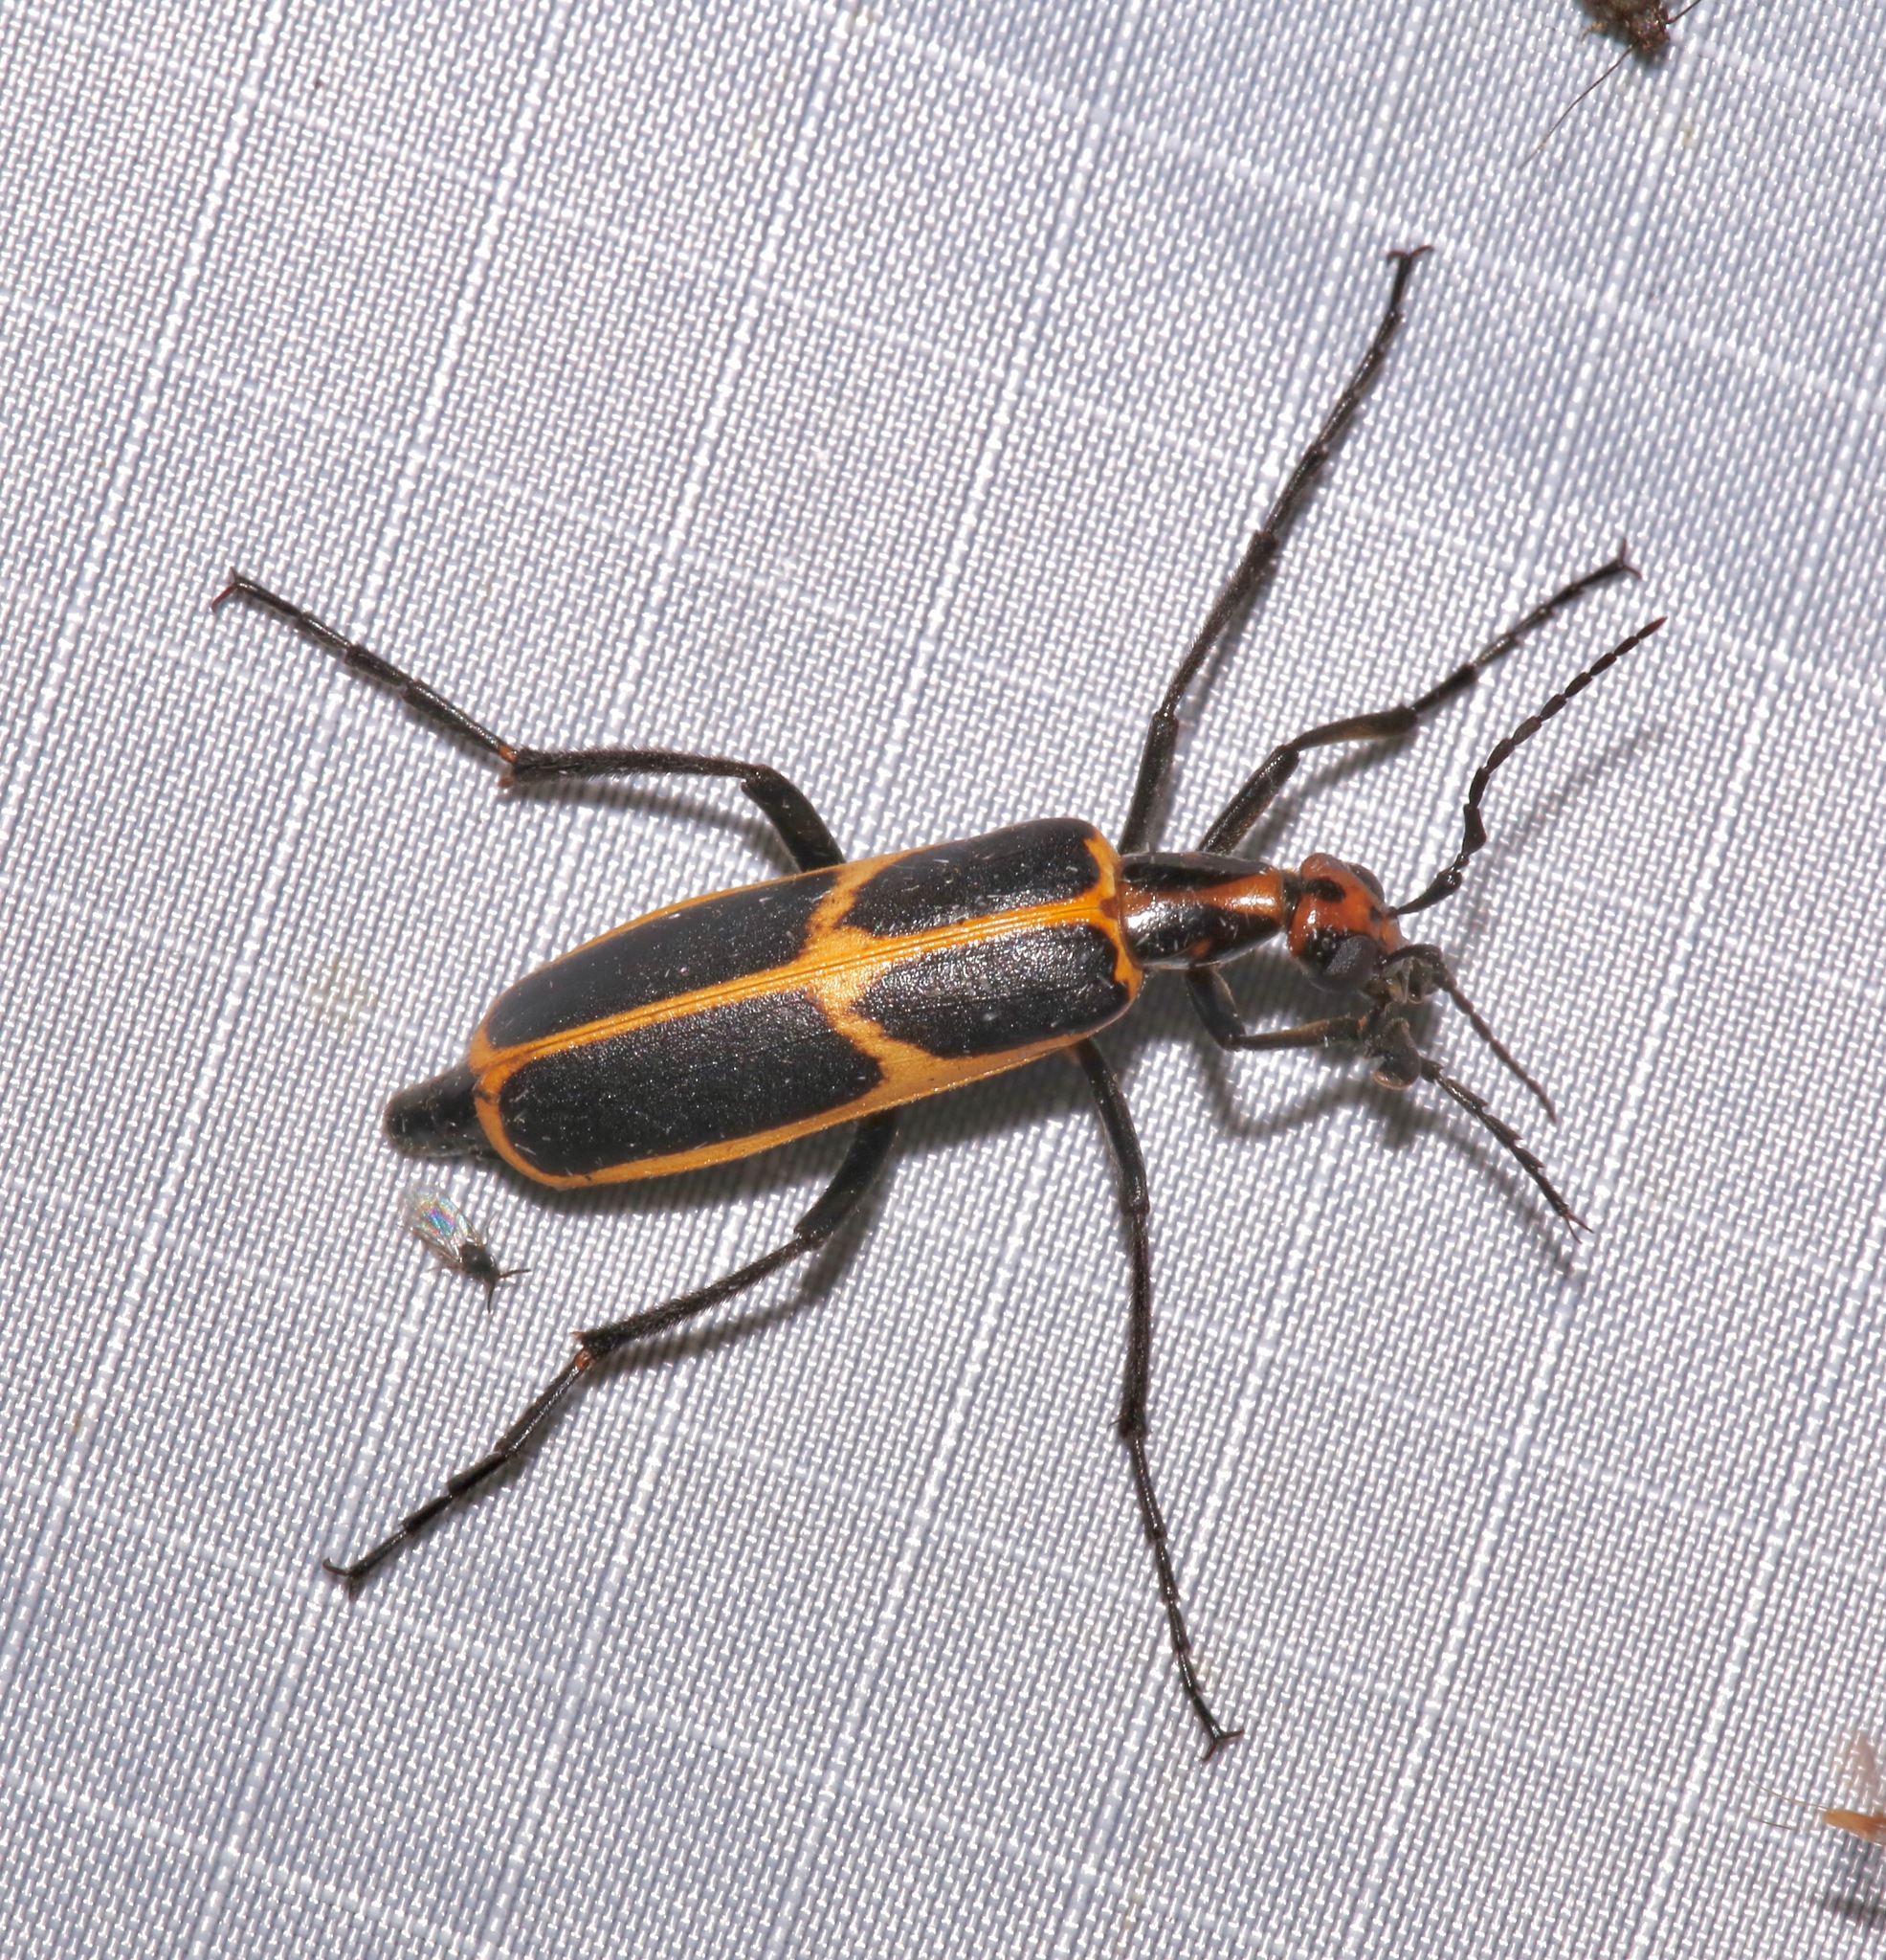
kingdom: Animalia
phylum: Arthropoda
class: Insecta
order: Coleoptera
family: Meloidae
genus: Pyrota
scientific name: Pyrota
